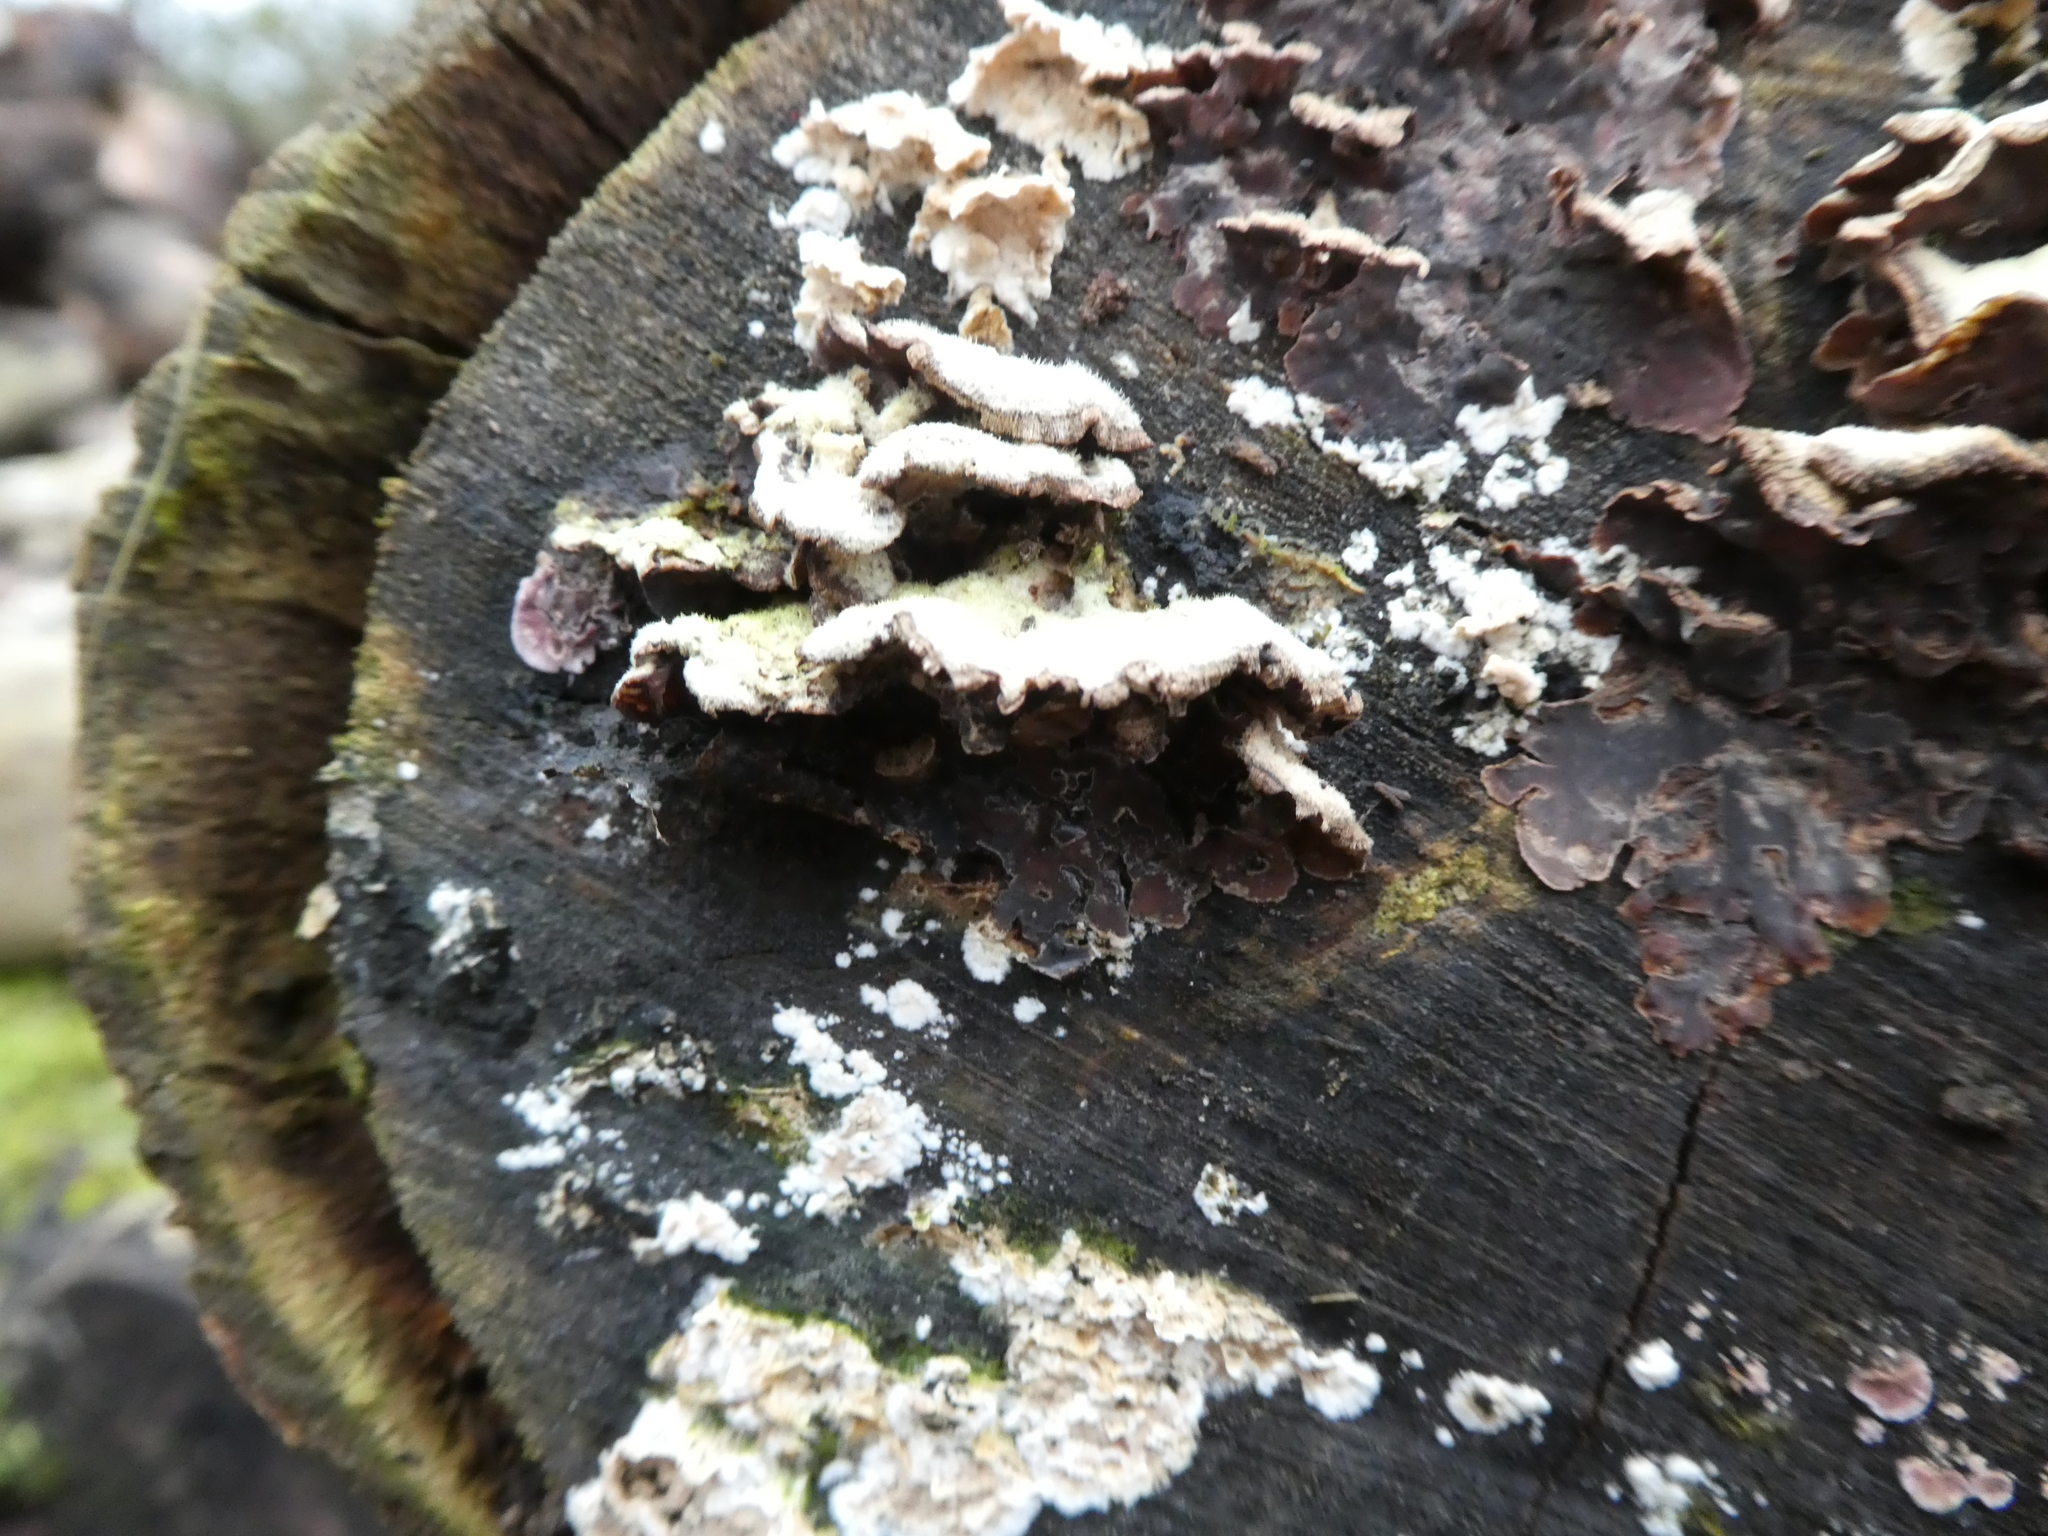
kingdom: Fungi
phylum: Basidiomycota
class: Agaricomycetes
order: Agaricales
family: Cyphellaceae
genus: Chondrostereum
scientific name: Chondrostereum purpureum
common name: Silver leaf disease
